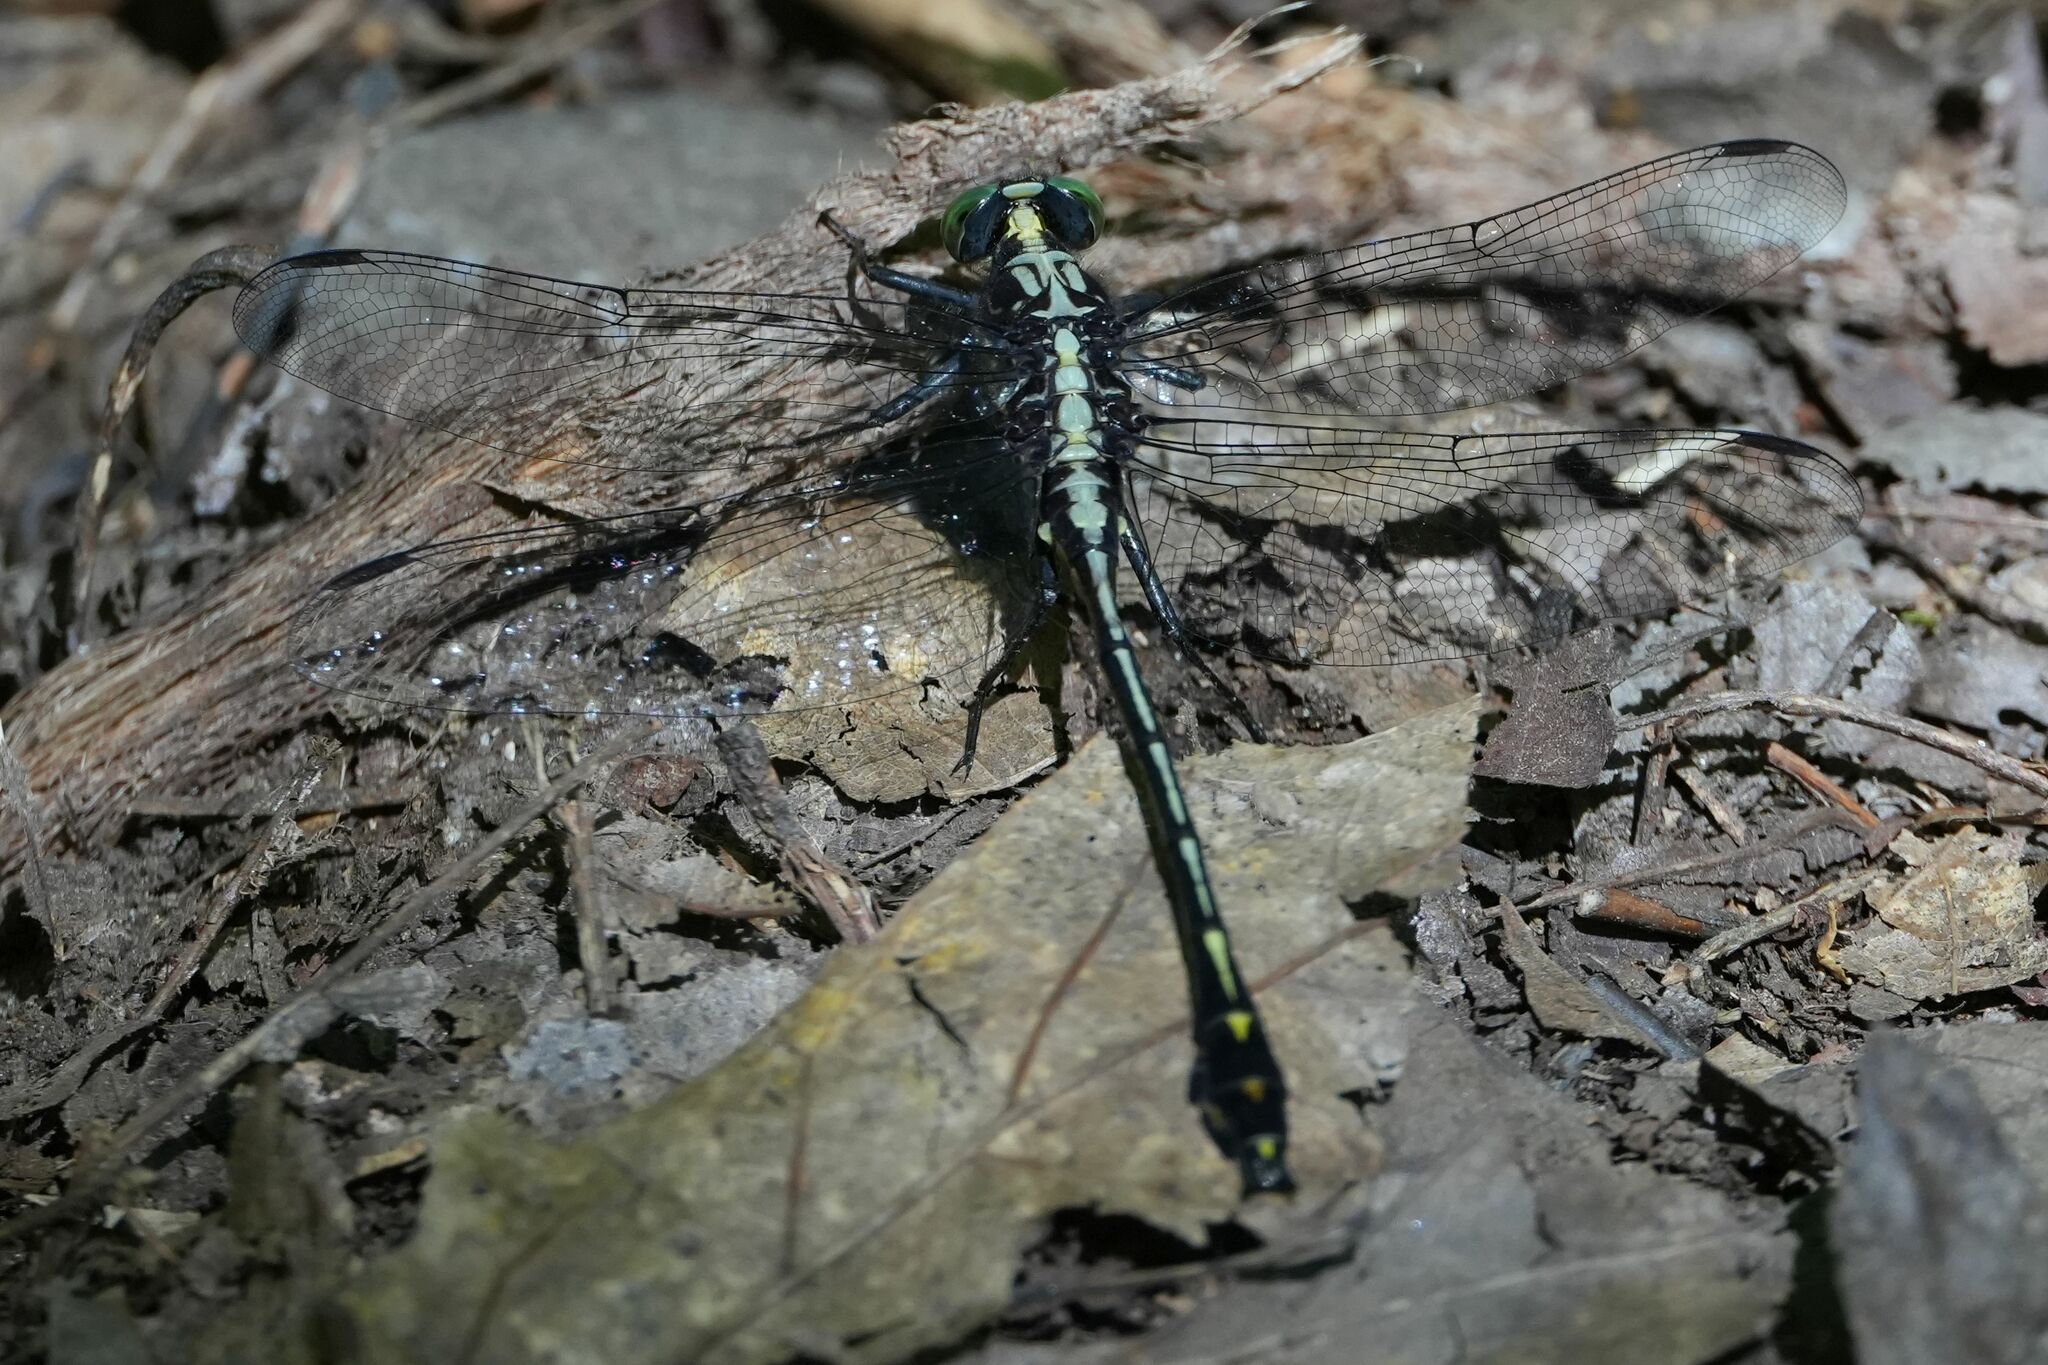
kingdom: Animalia
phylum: Arthropoda
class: Insecta
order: Odonata
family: Gomphidae
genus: Dromogomphus
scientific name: Dromogomphus spinosus
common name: Black-shouldered spinyleg
